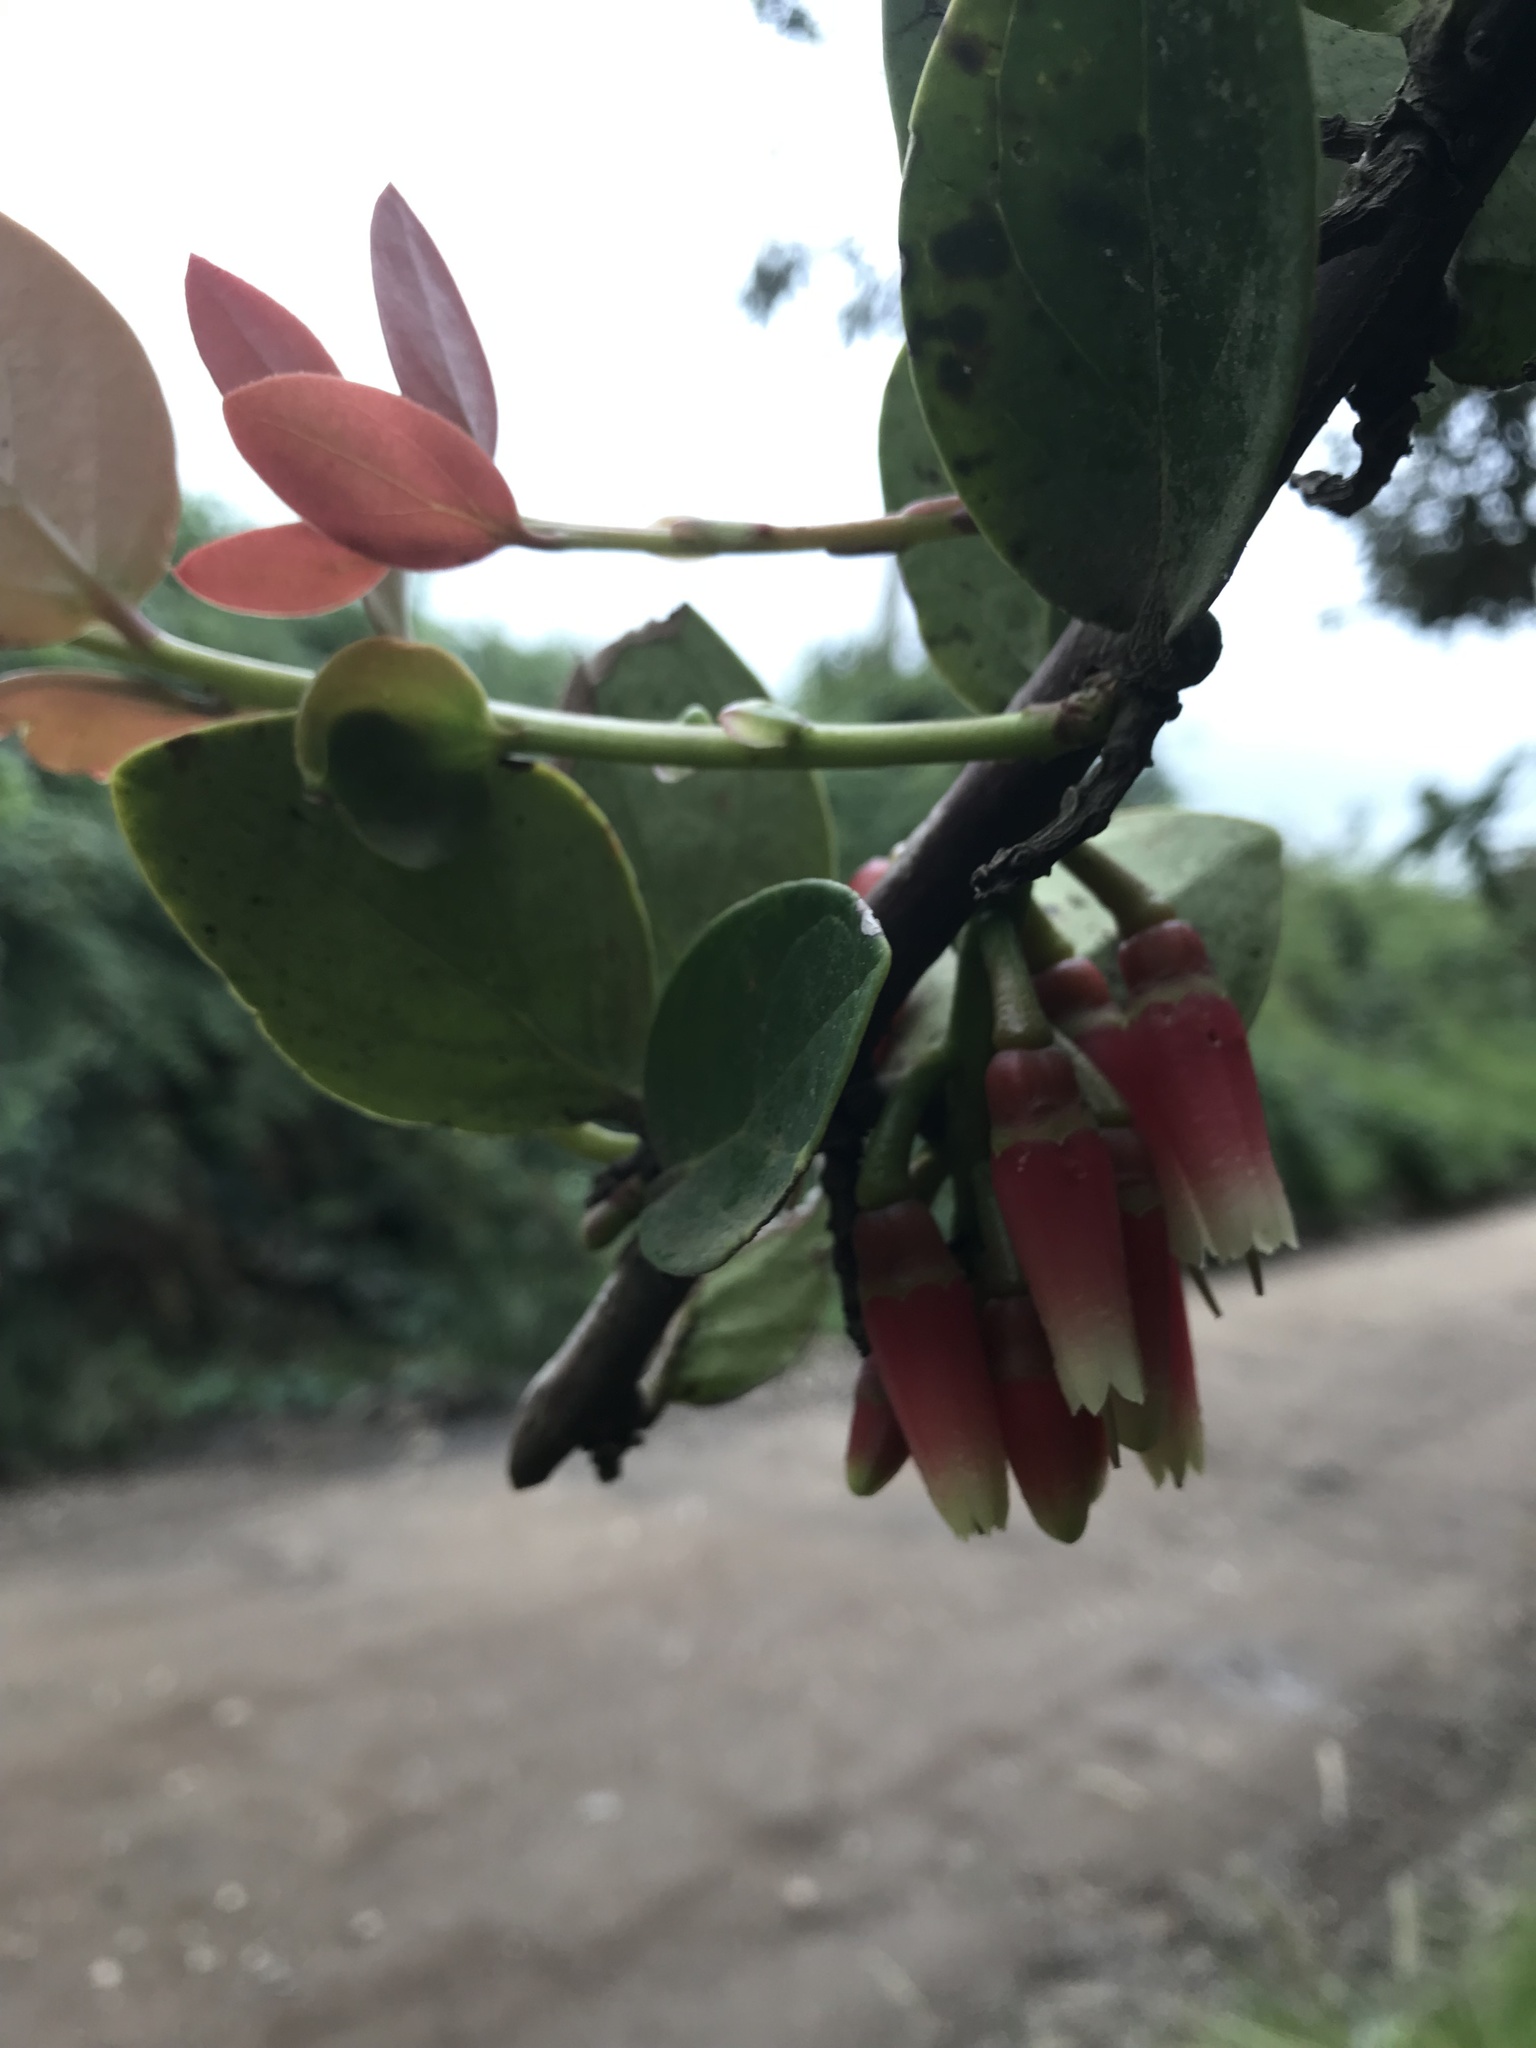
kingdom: Plantae
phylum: Tracheophyta
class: Magnoliopsida
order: Ericales
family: Ericaceae
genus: Macleania
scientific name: Macleania rupestris
